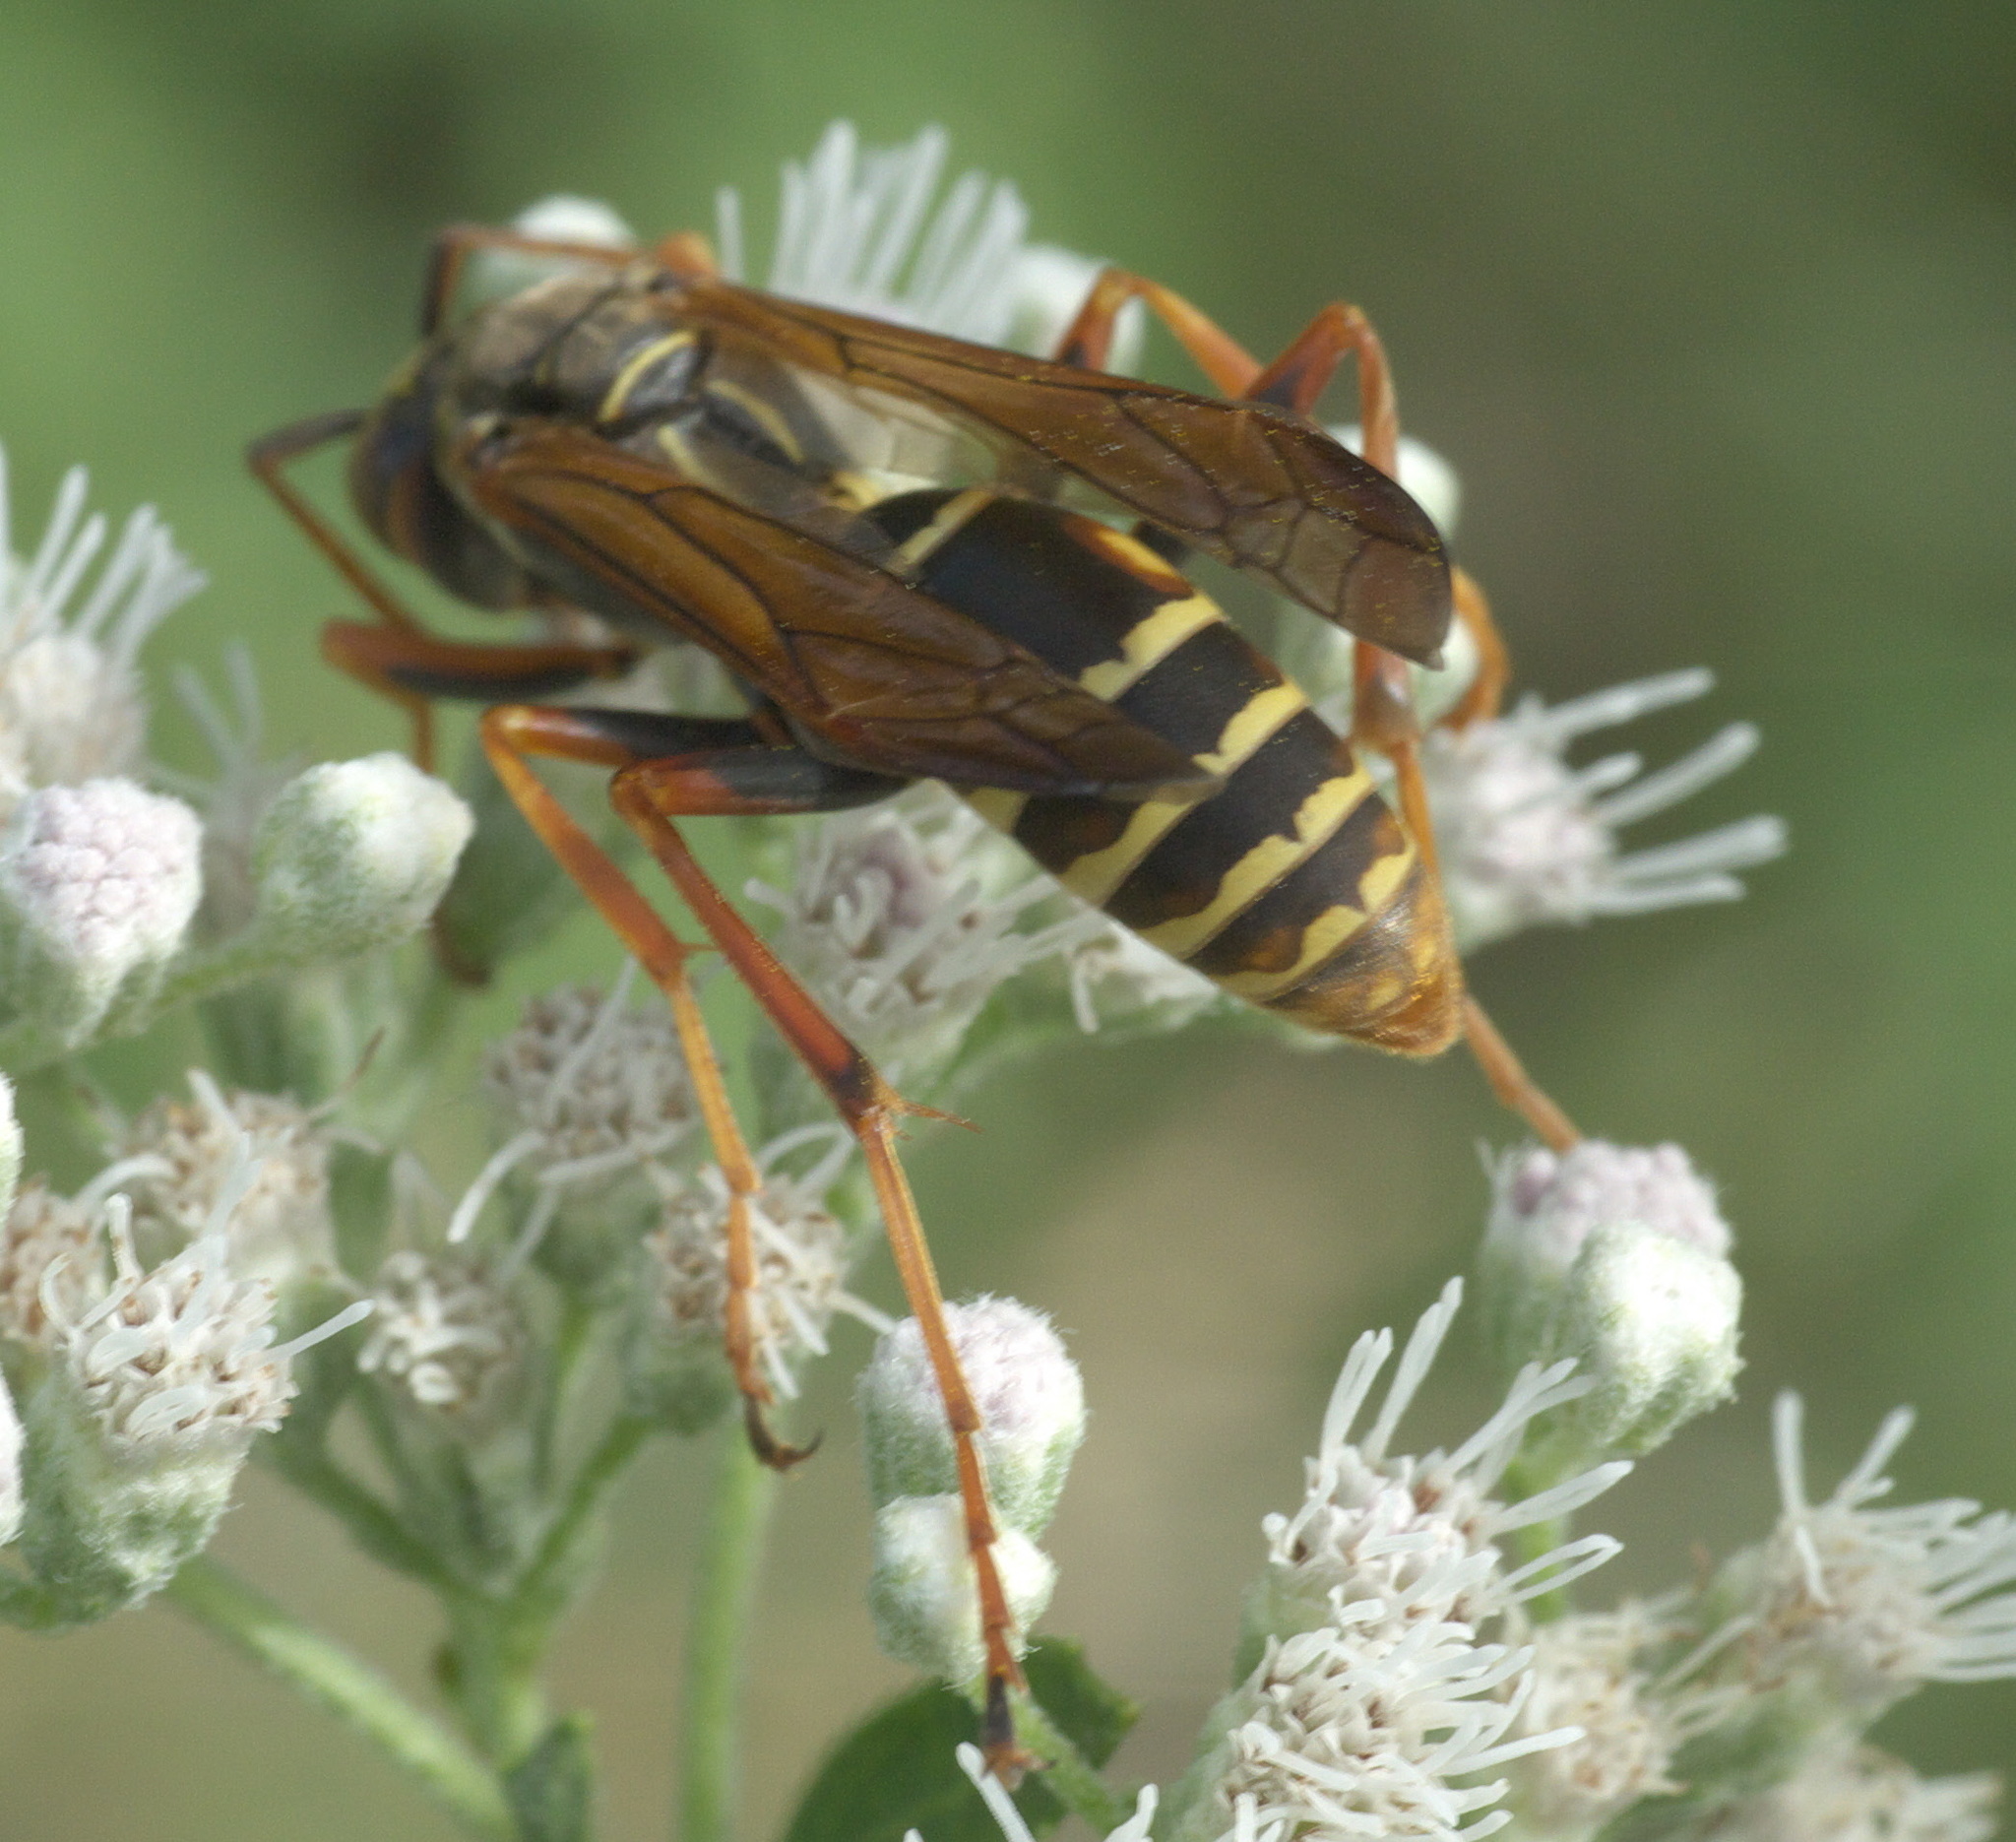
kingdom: Animalia
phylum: Arthropoda
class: Insecta
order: Hymenoptera
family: Eumenidae
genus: Polistes
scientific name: Polistes fuscatus
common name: Dark paper wasp
